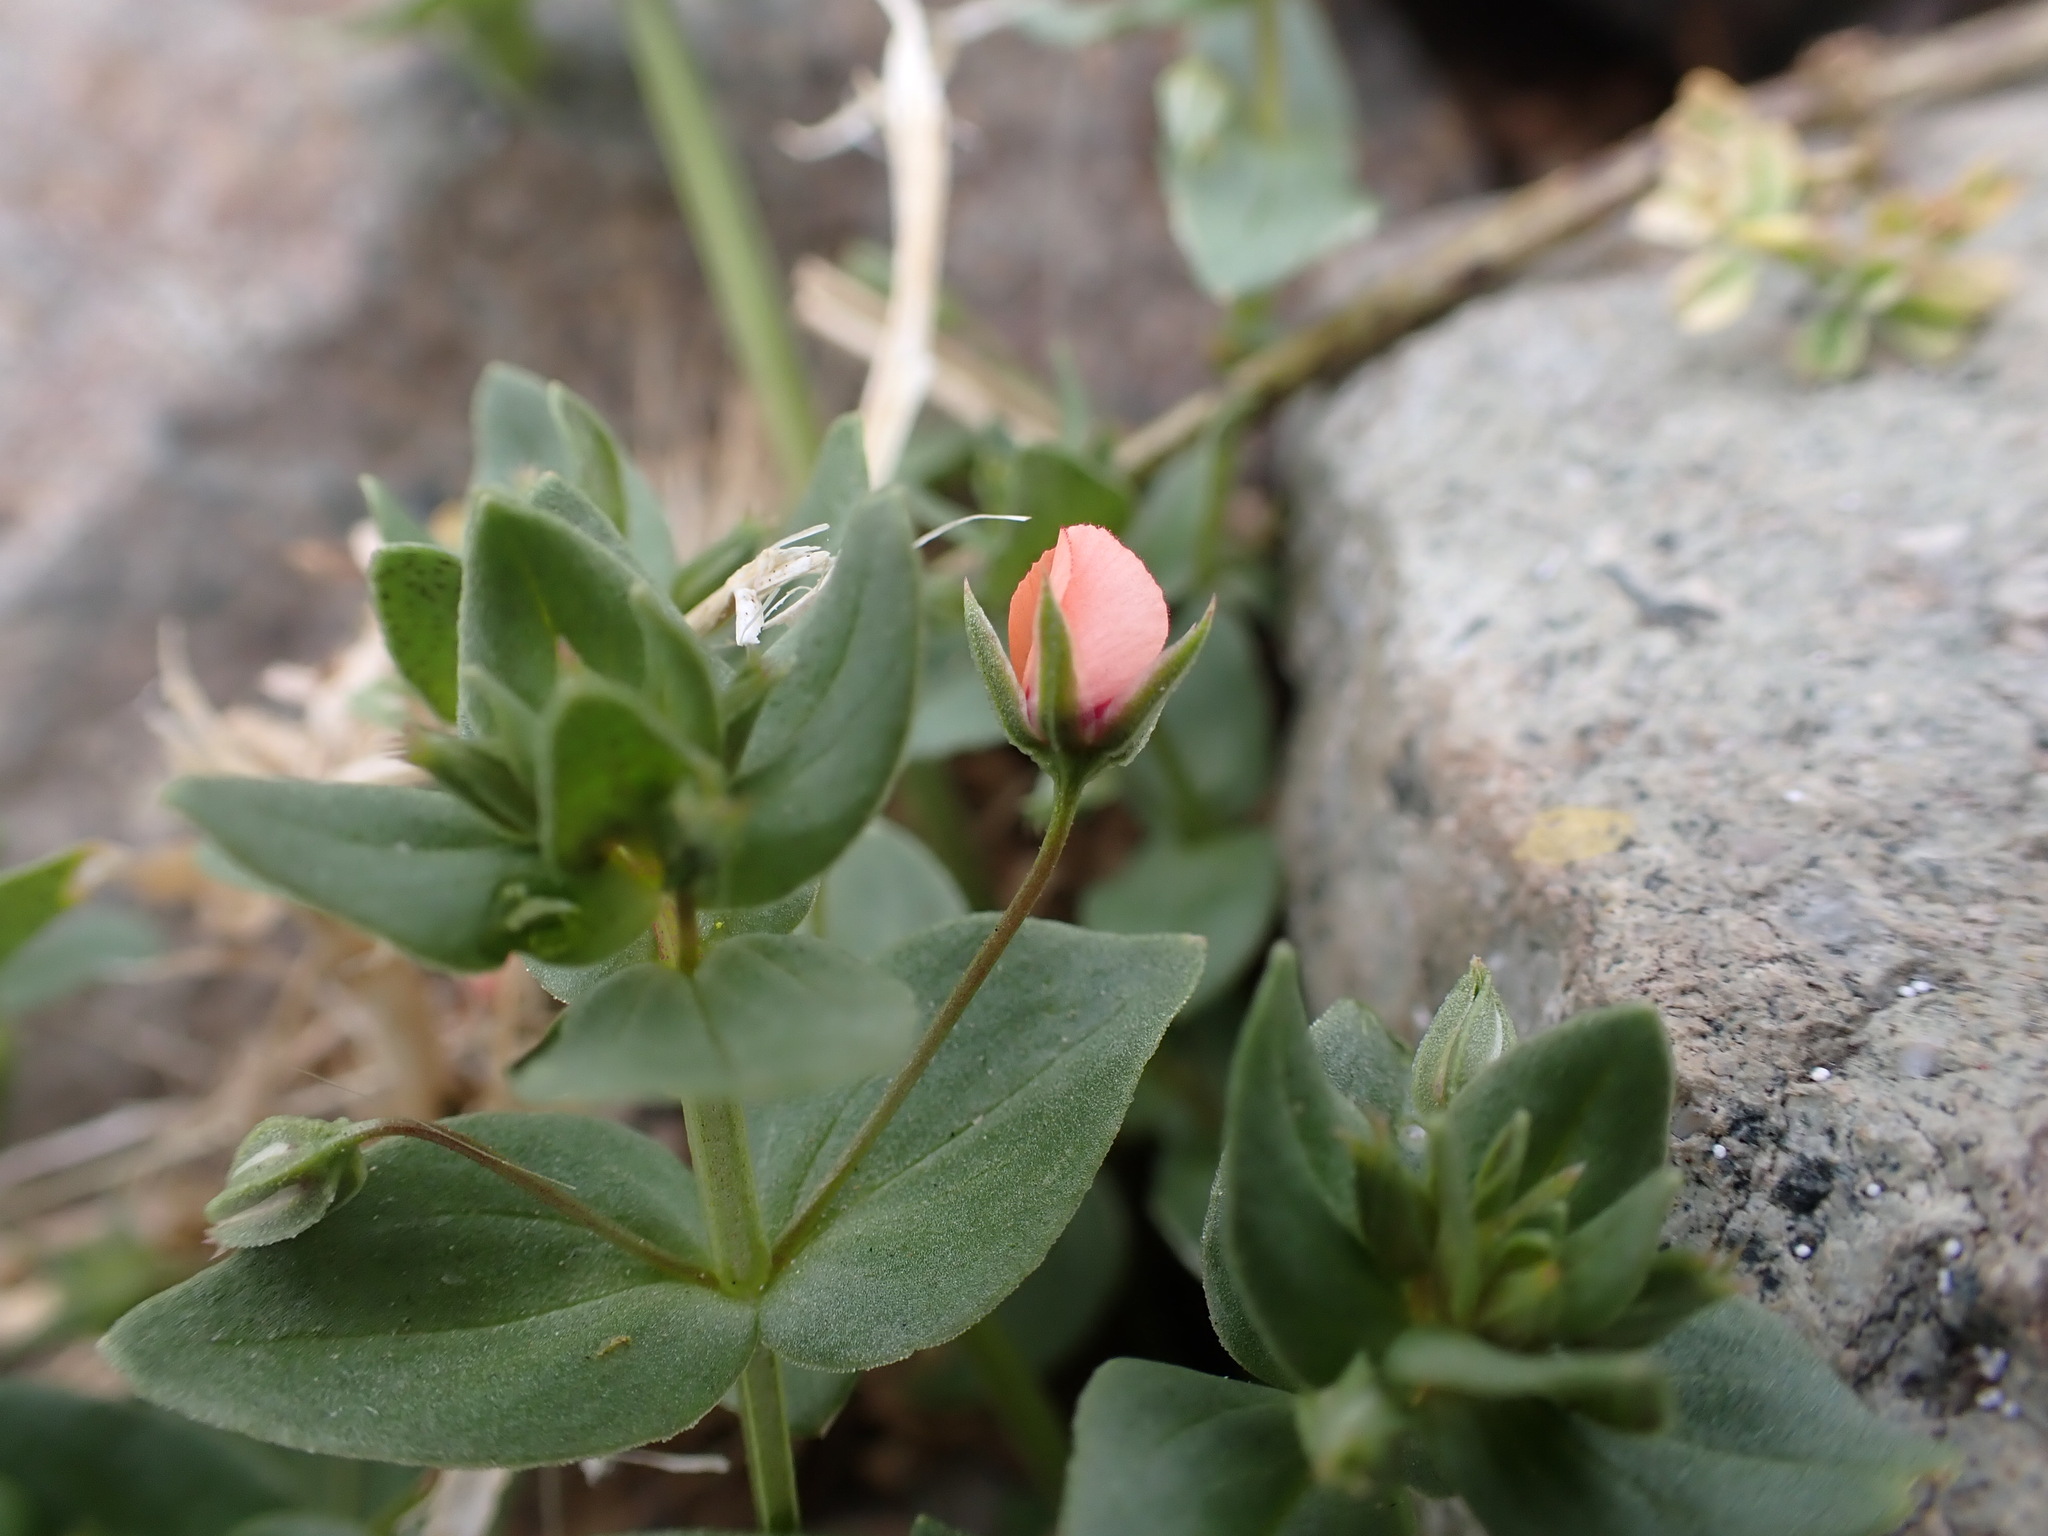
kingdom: Plantae
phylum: Tracheophyta
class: Magnoliopsida
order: Ericales
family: Primulaceae
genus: Lysimachia
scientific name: Lysimachia arvensis
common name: Scarlet pimpernel
